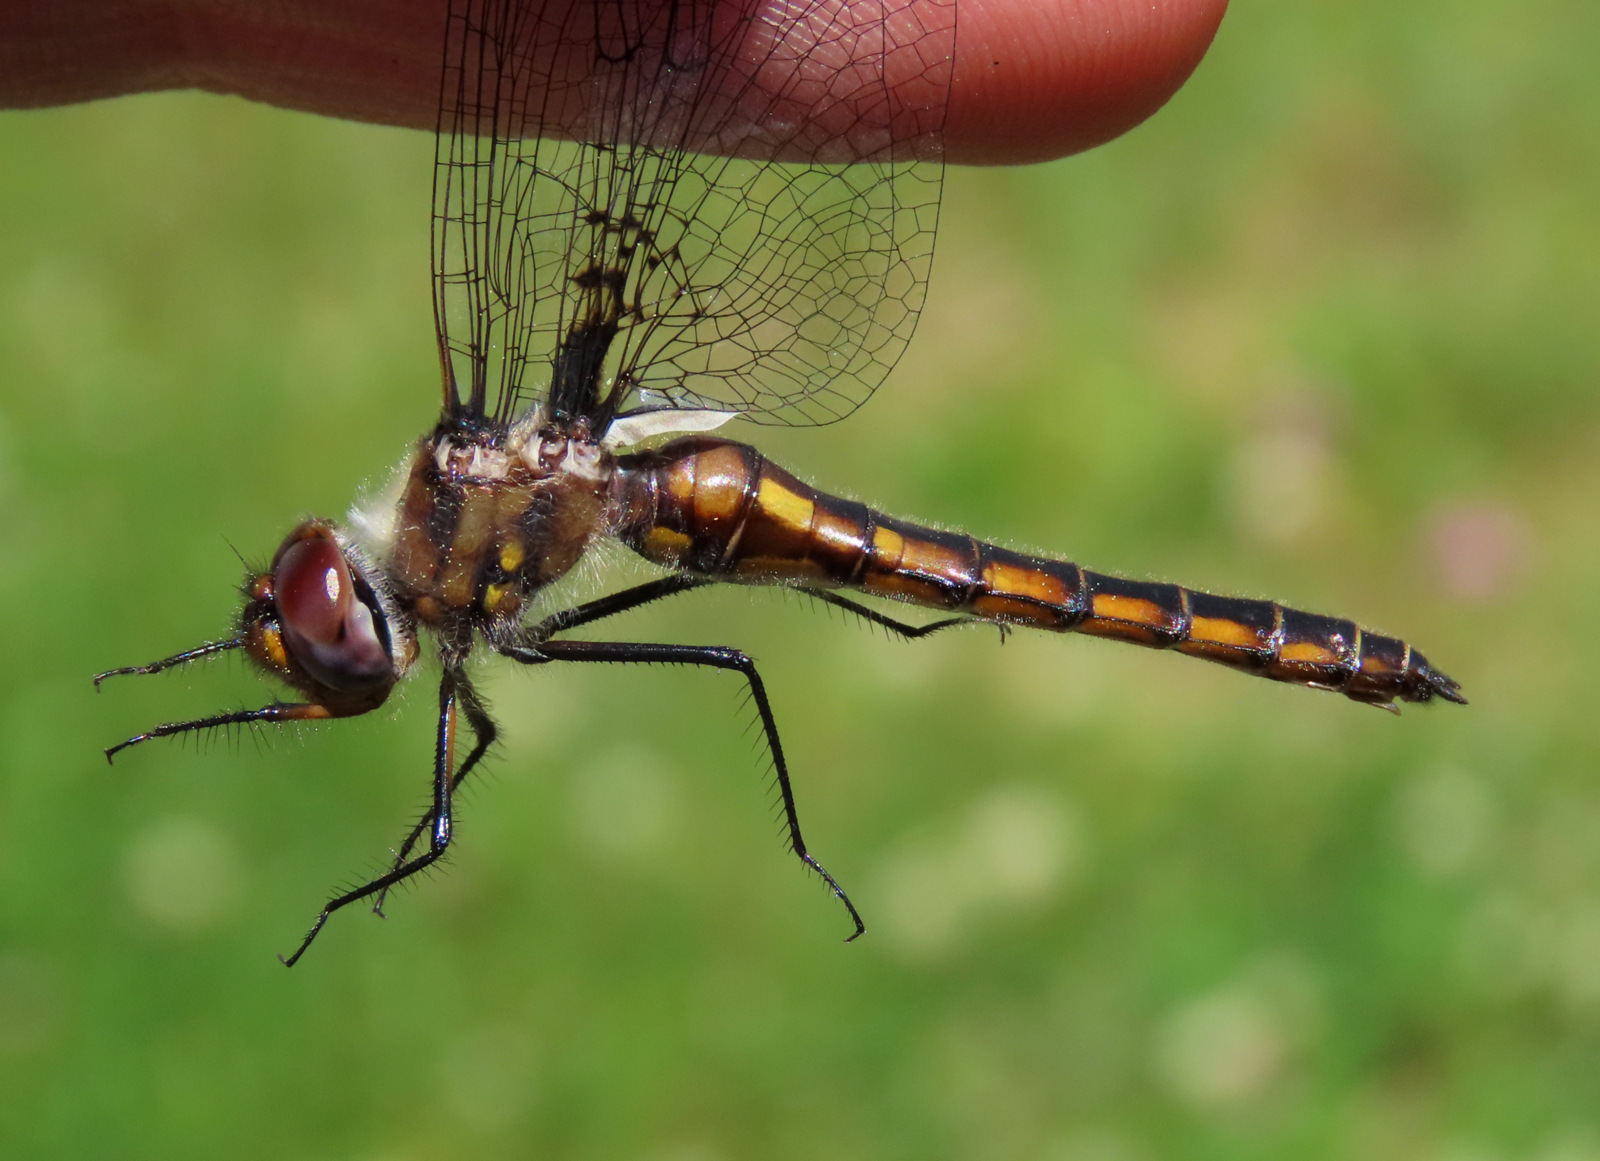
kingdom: Animalia
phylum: Arthropoda
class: Insecta
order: Odonata
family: Corduliidae
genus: Epitheca
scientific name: Epitheca cynosura
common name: Common baskettail
